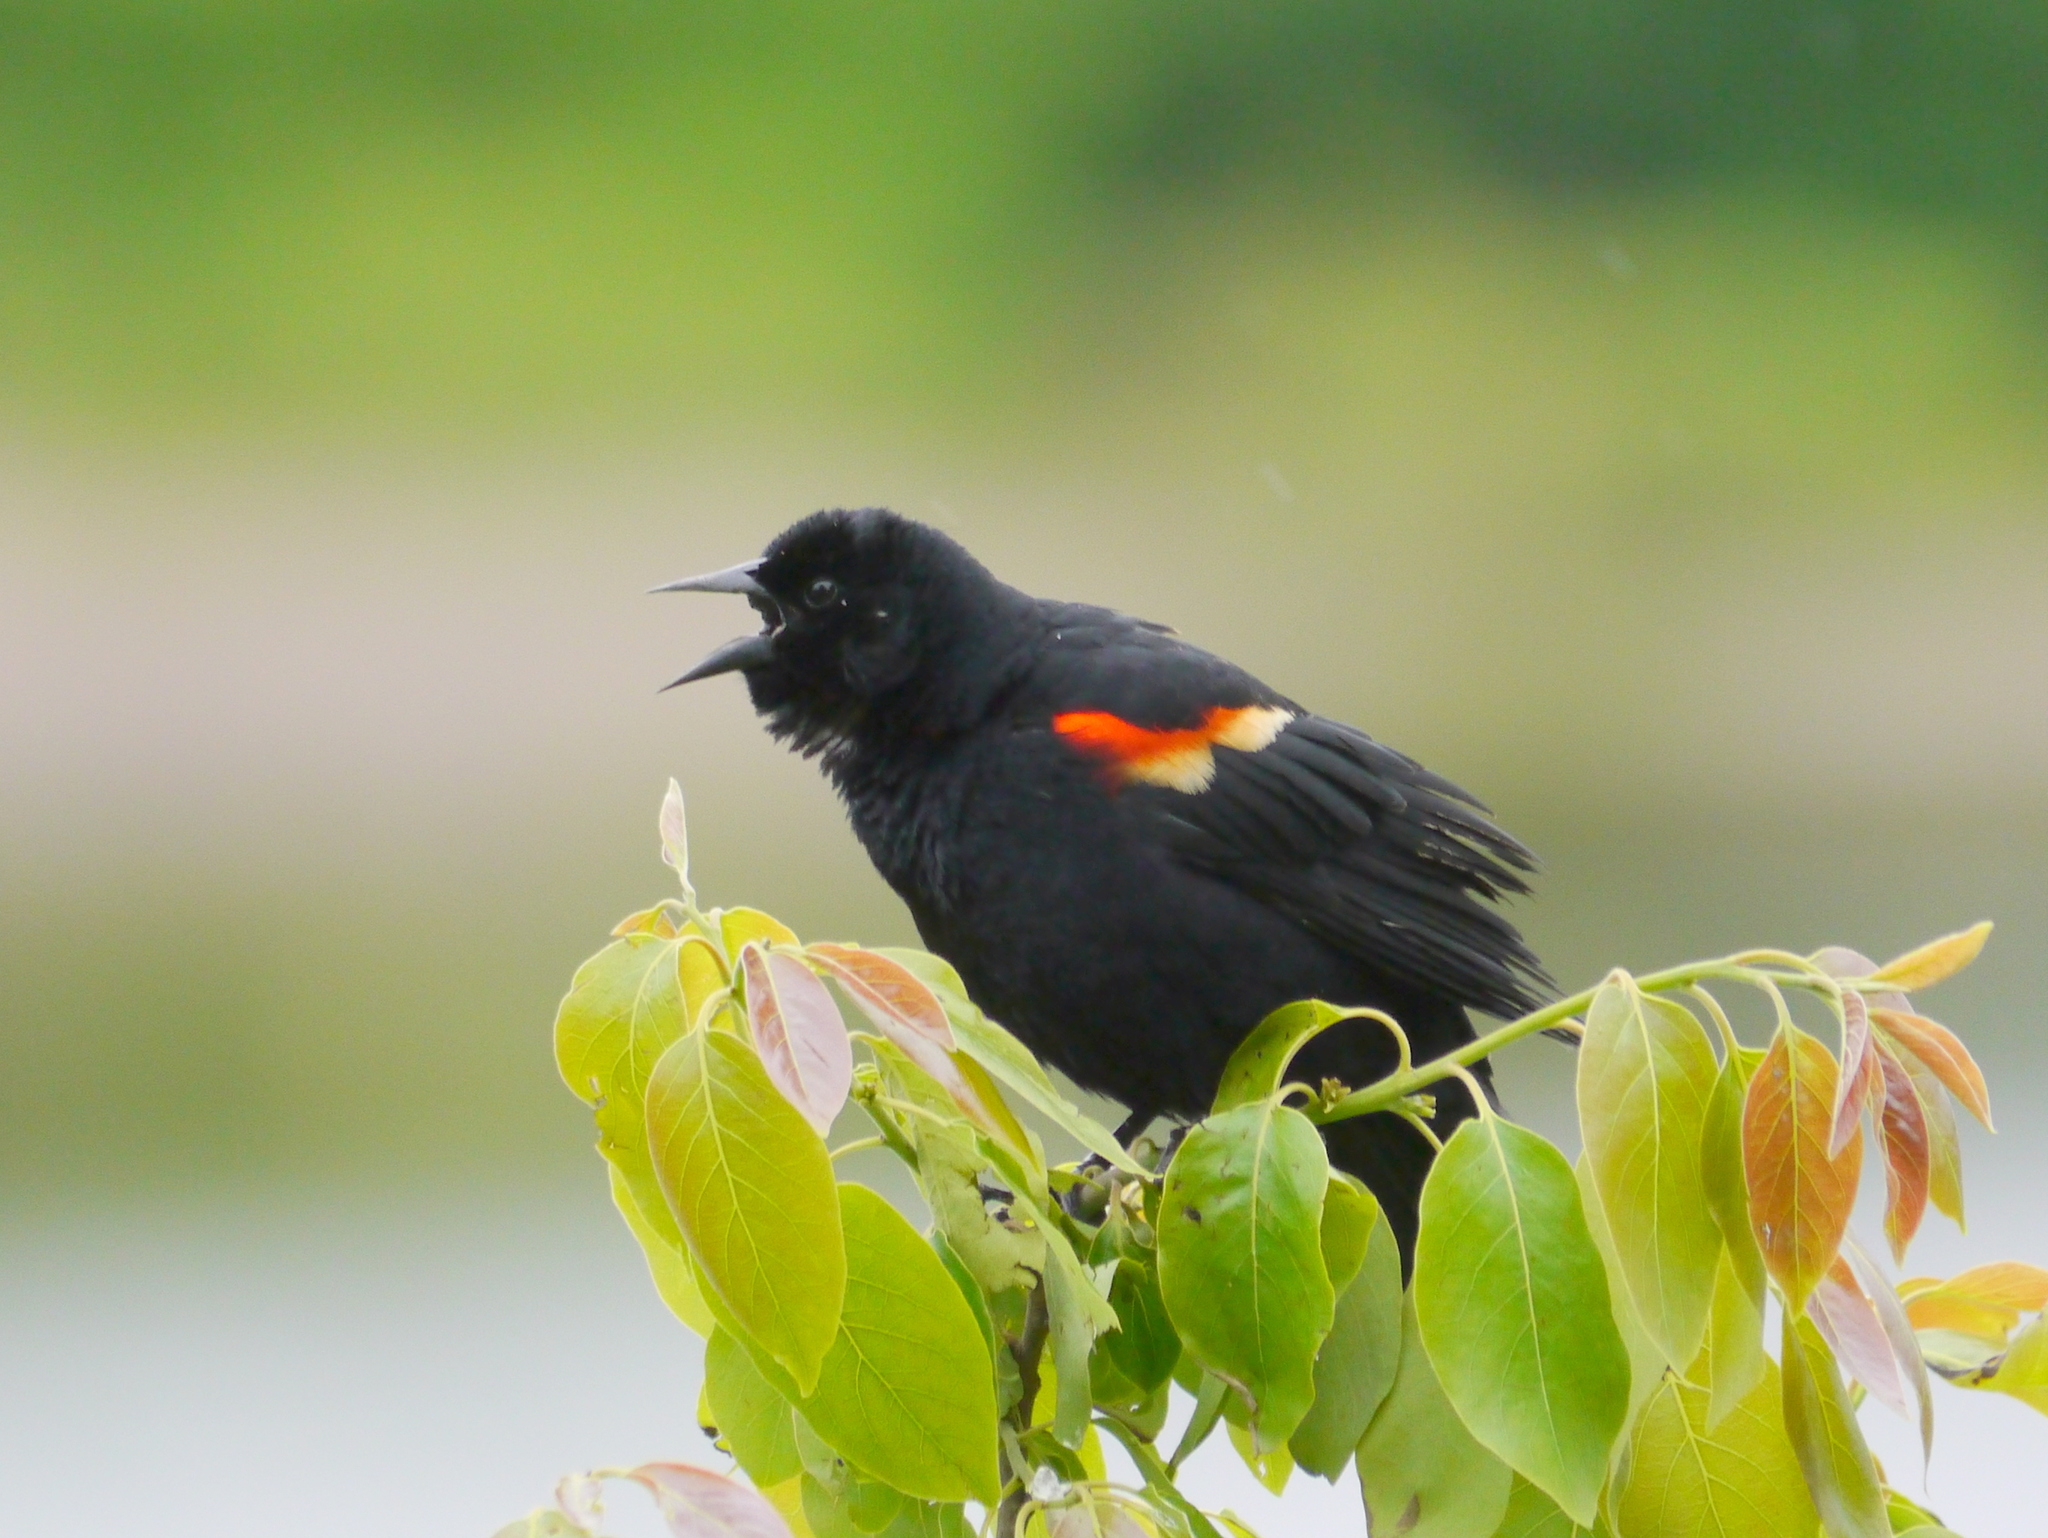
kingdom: Animalia
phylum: Chordata
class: Aves
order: Passeriformes
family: Icteridae
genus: Agelaius
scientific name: Agelaius phoeniceus
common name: Red-winged blackbird
